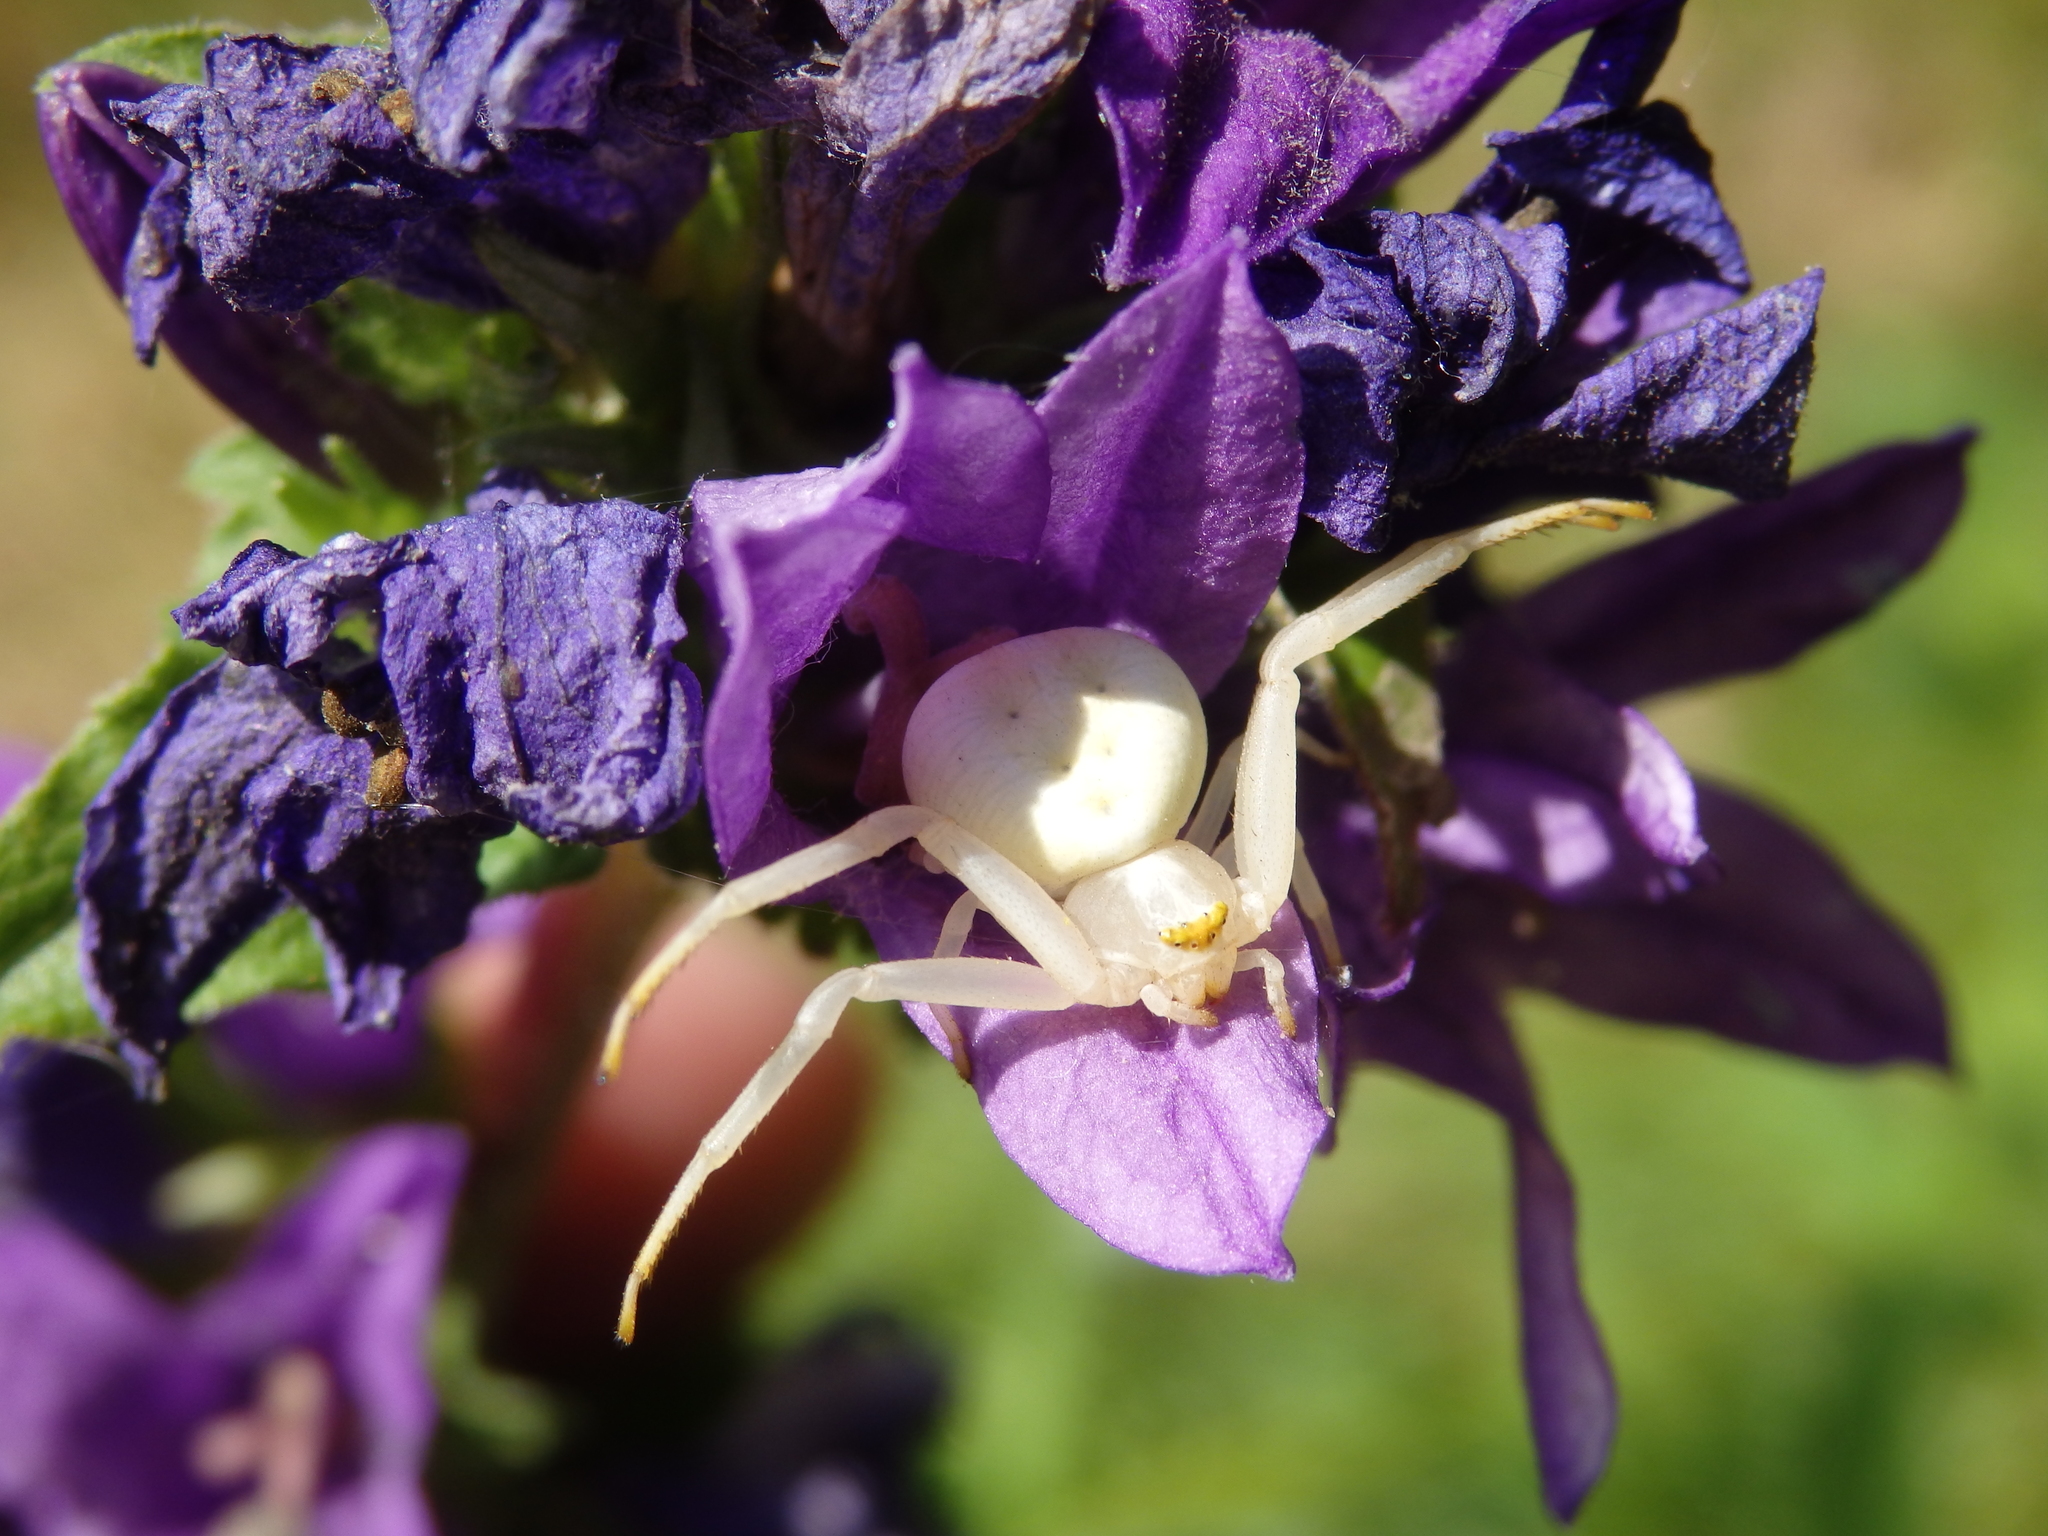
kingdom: Animalia
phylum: Arthropoda
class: Arachnida
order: Araneae
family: Thomisidae
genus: Misumena
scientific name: Misumena vatia
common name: Goldenrod crab spider
